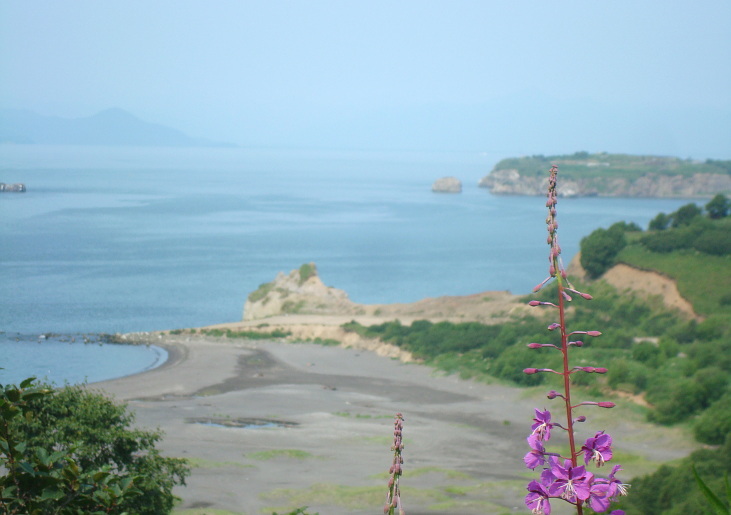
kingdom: Plantae
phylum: Tracheophyta
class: Magnoliopsida
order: Myrtales
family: Onagraceae
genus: Chamaenerion
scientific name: Chamaenerion angustifolium
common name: Fireweed
